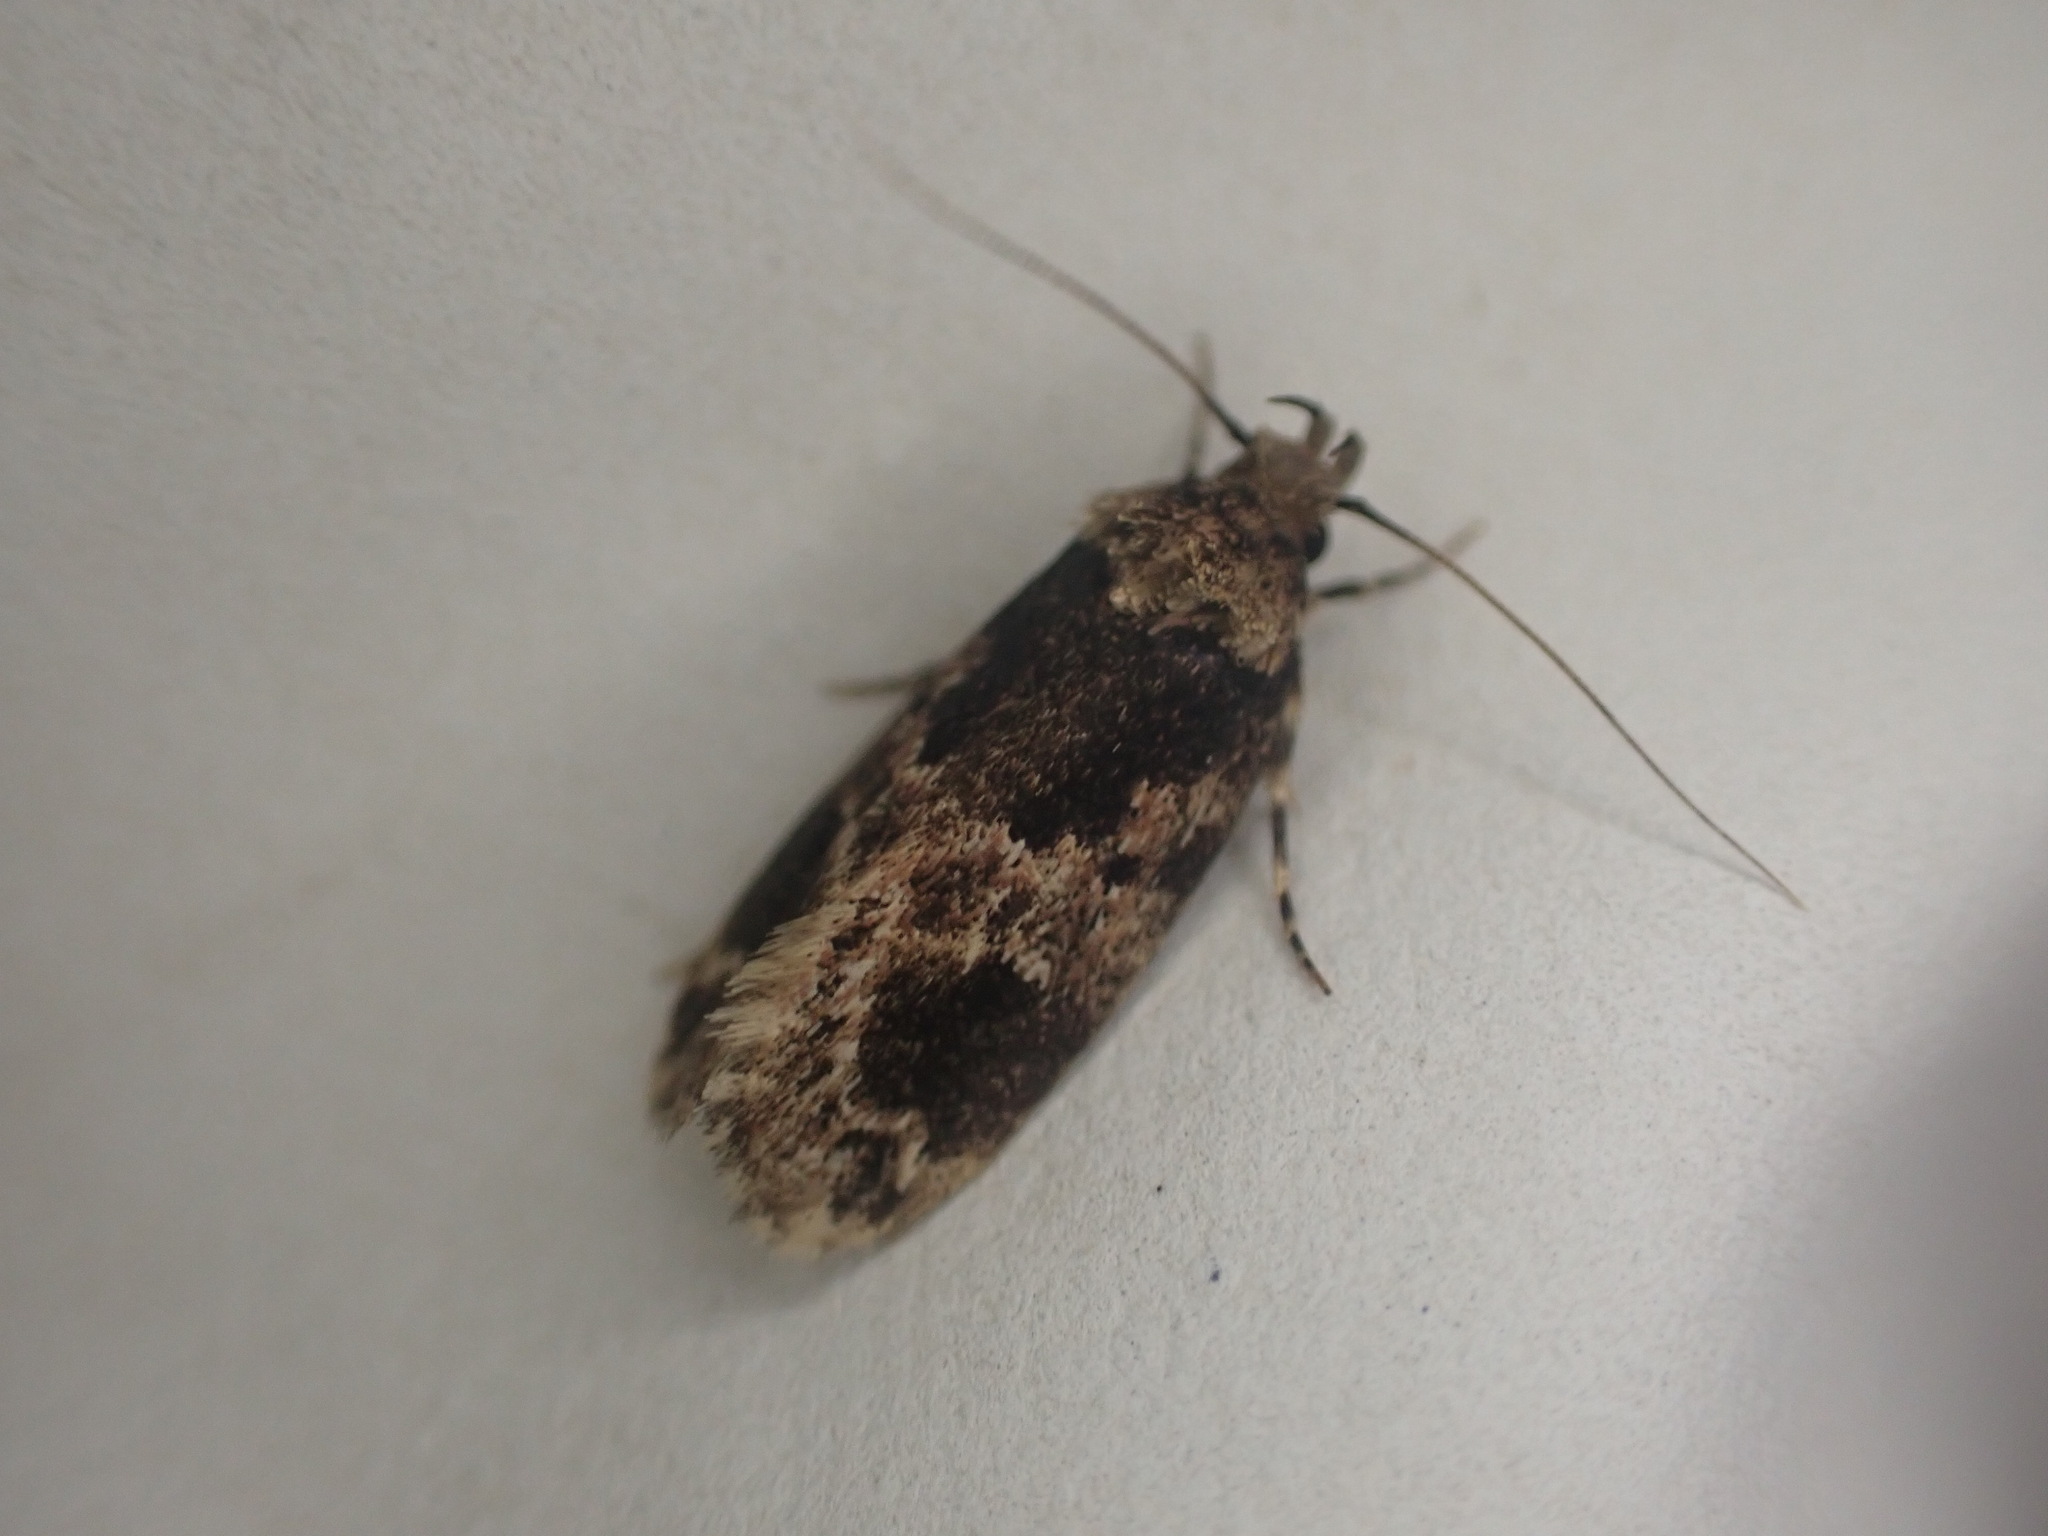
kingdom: Animalia
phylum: Arthropoda
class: Insecta
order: Lepidoptera
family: Oecophoridae
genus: Barea
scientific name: Barea consignatella
